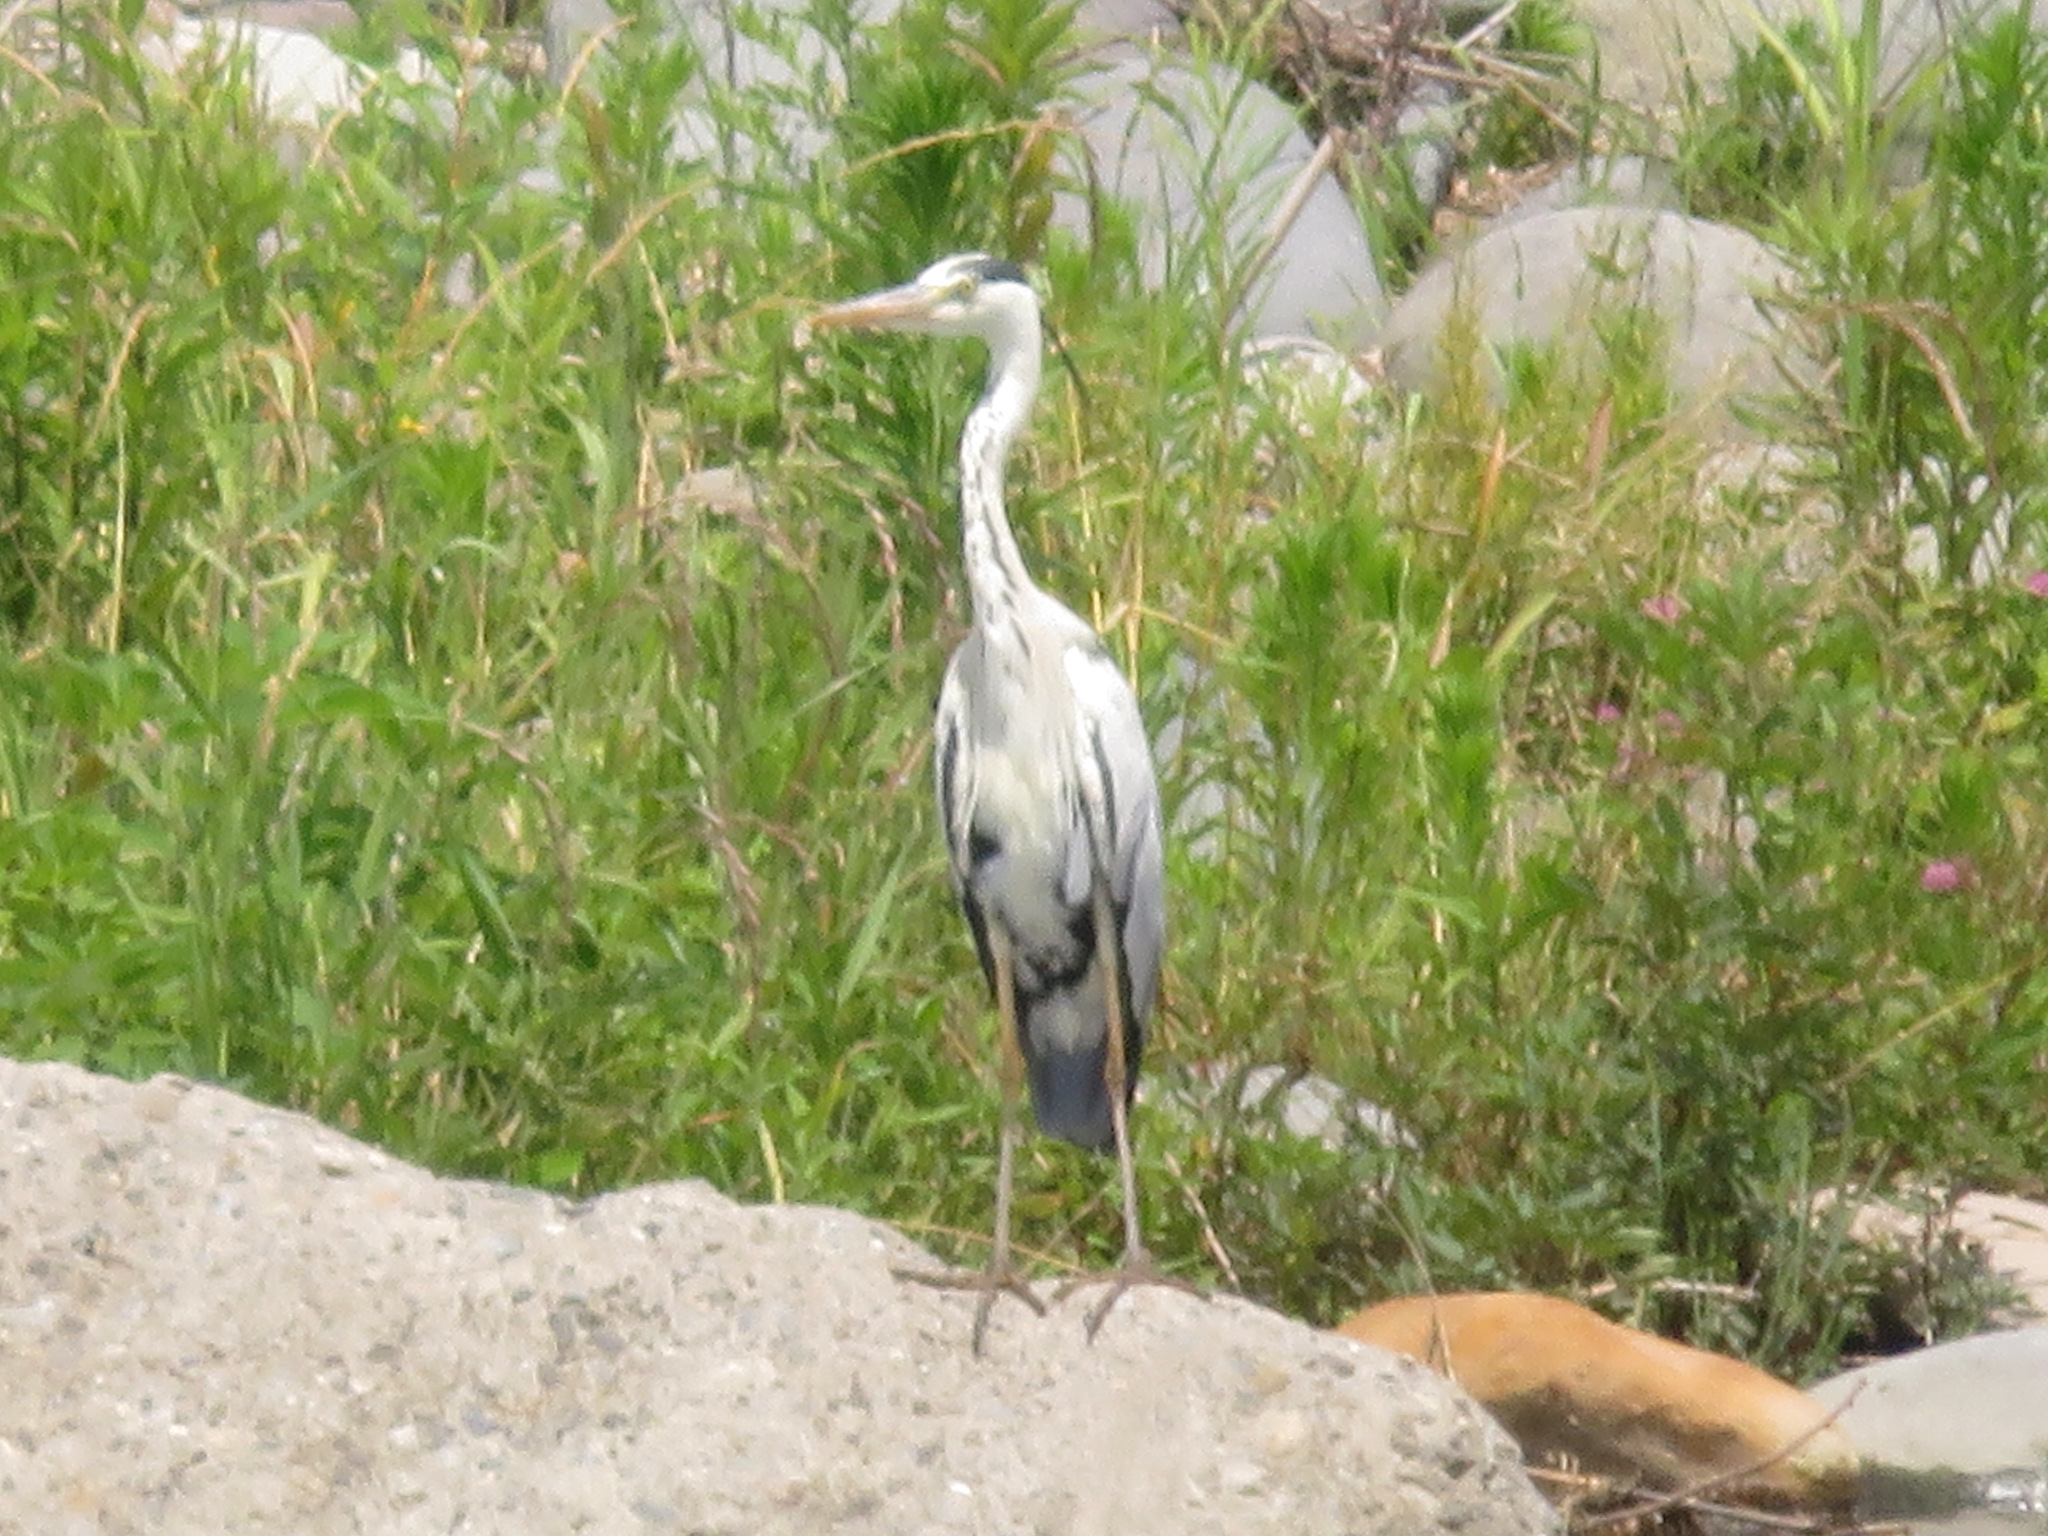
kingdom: Animalia
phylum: Chordata
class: Aves
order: Pelecaniformes
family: Ardeidae
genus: Ardea
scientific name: Ardea cinerea
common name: Grey heron
